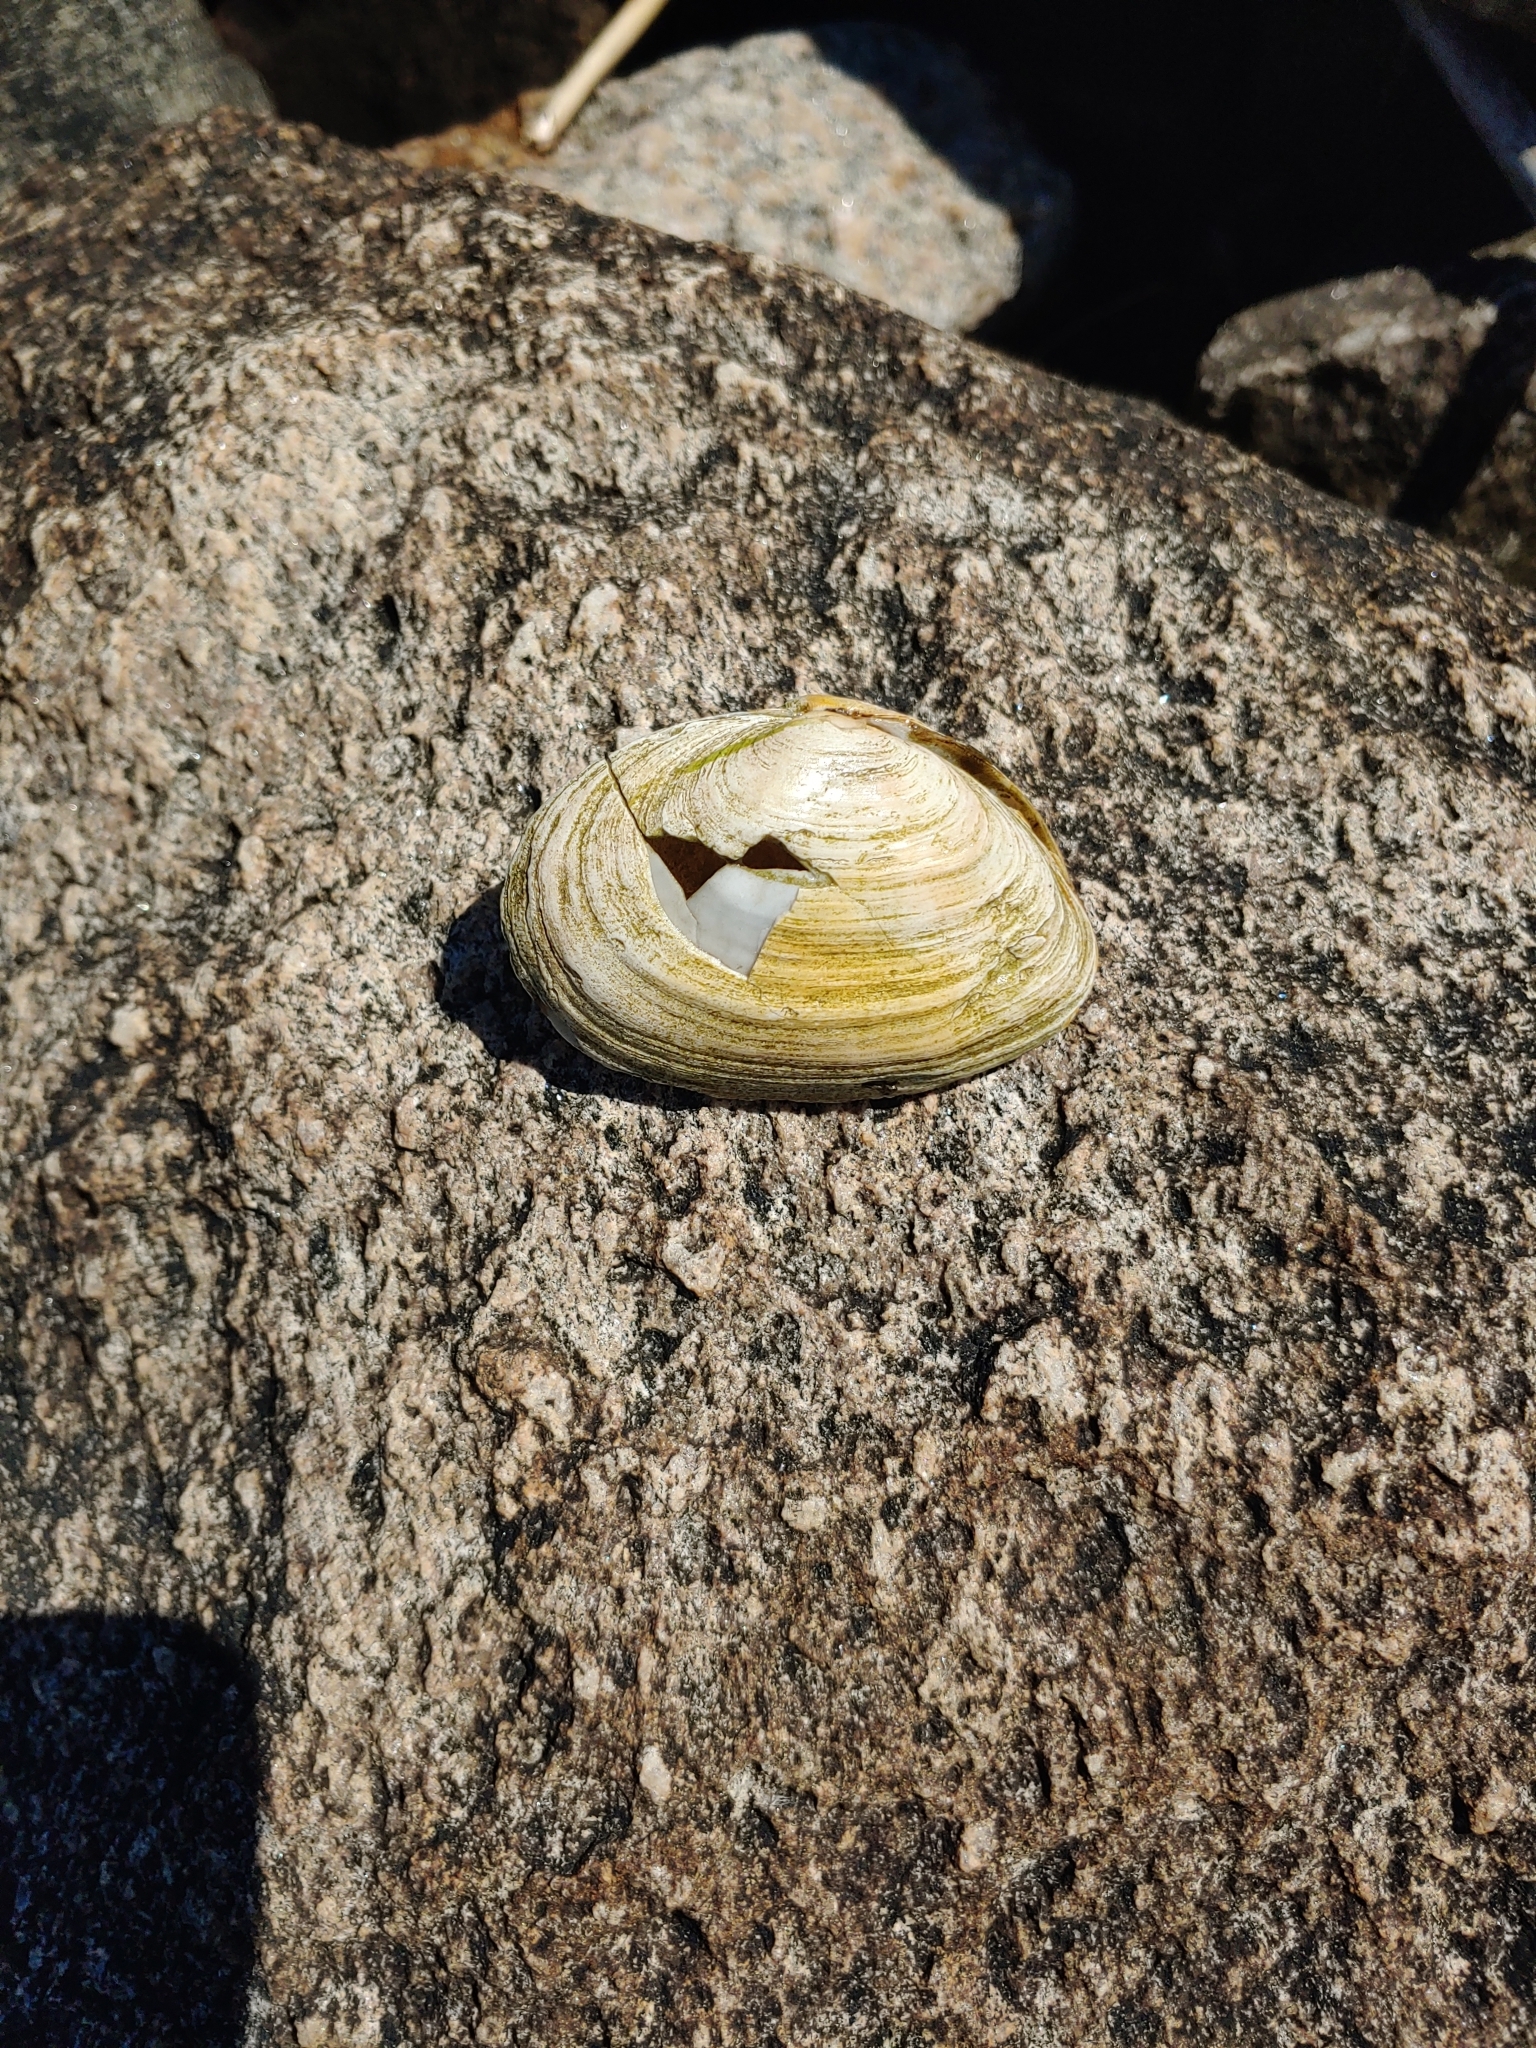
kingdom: Animalia
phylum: Mollusca
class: Bivalvia
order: Myida
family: Myidae
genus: Mya
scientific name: Mya arenaria
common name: Soft-shelled clam
